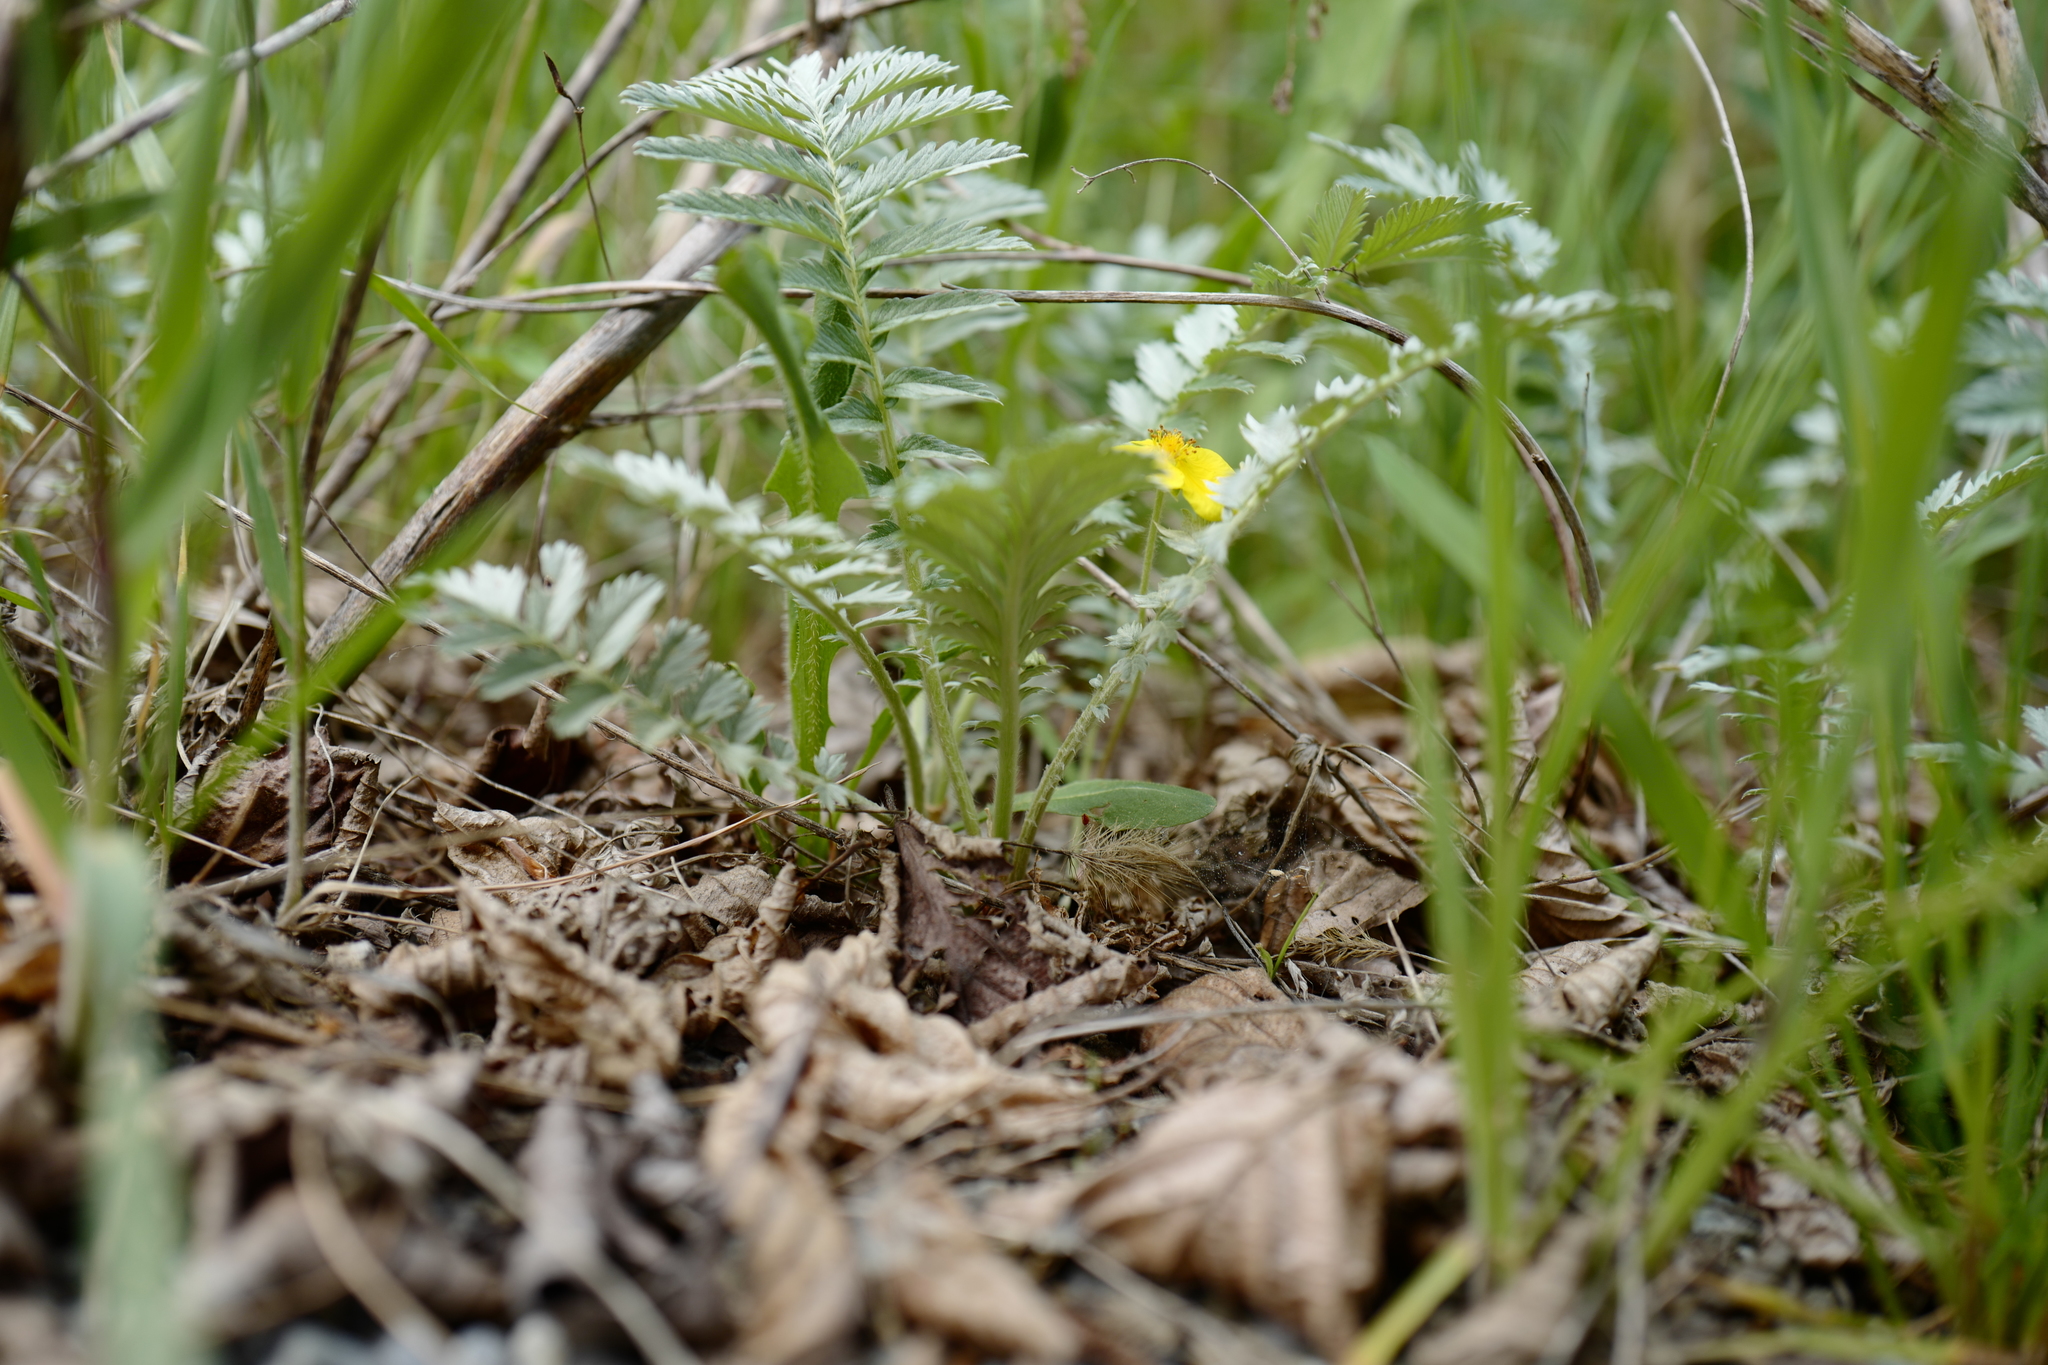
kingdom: Plantae
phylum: Tracheophyta
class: Magnoliopsida
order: Rosales
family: Rosaceae
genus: Argentina
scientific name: Argentina anserina
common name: Common silverweed
